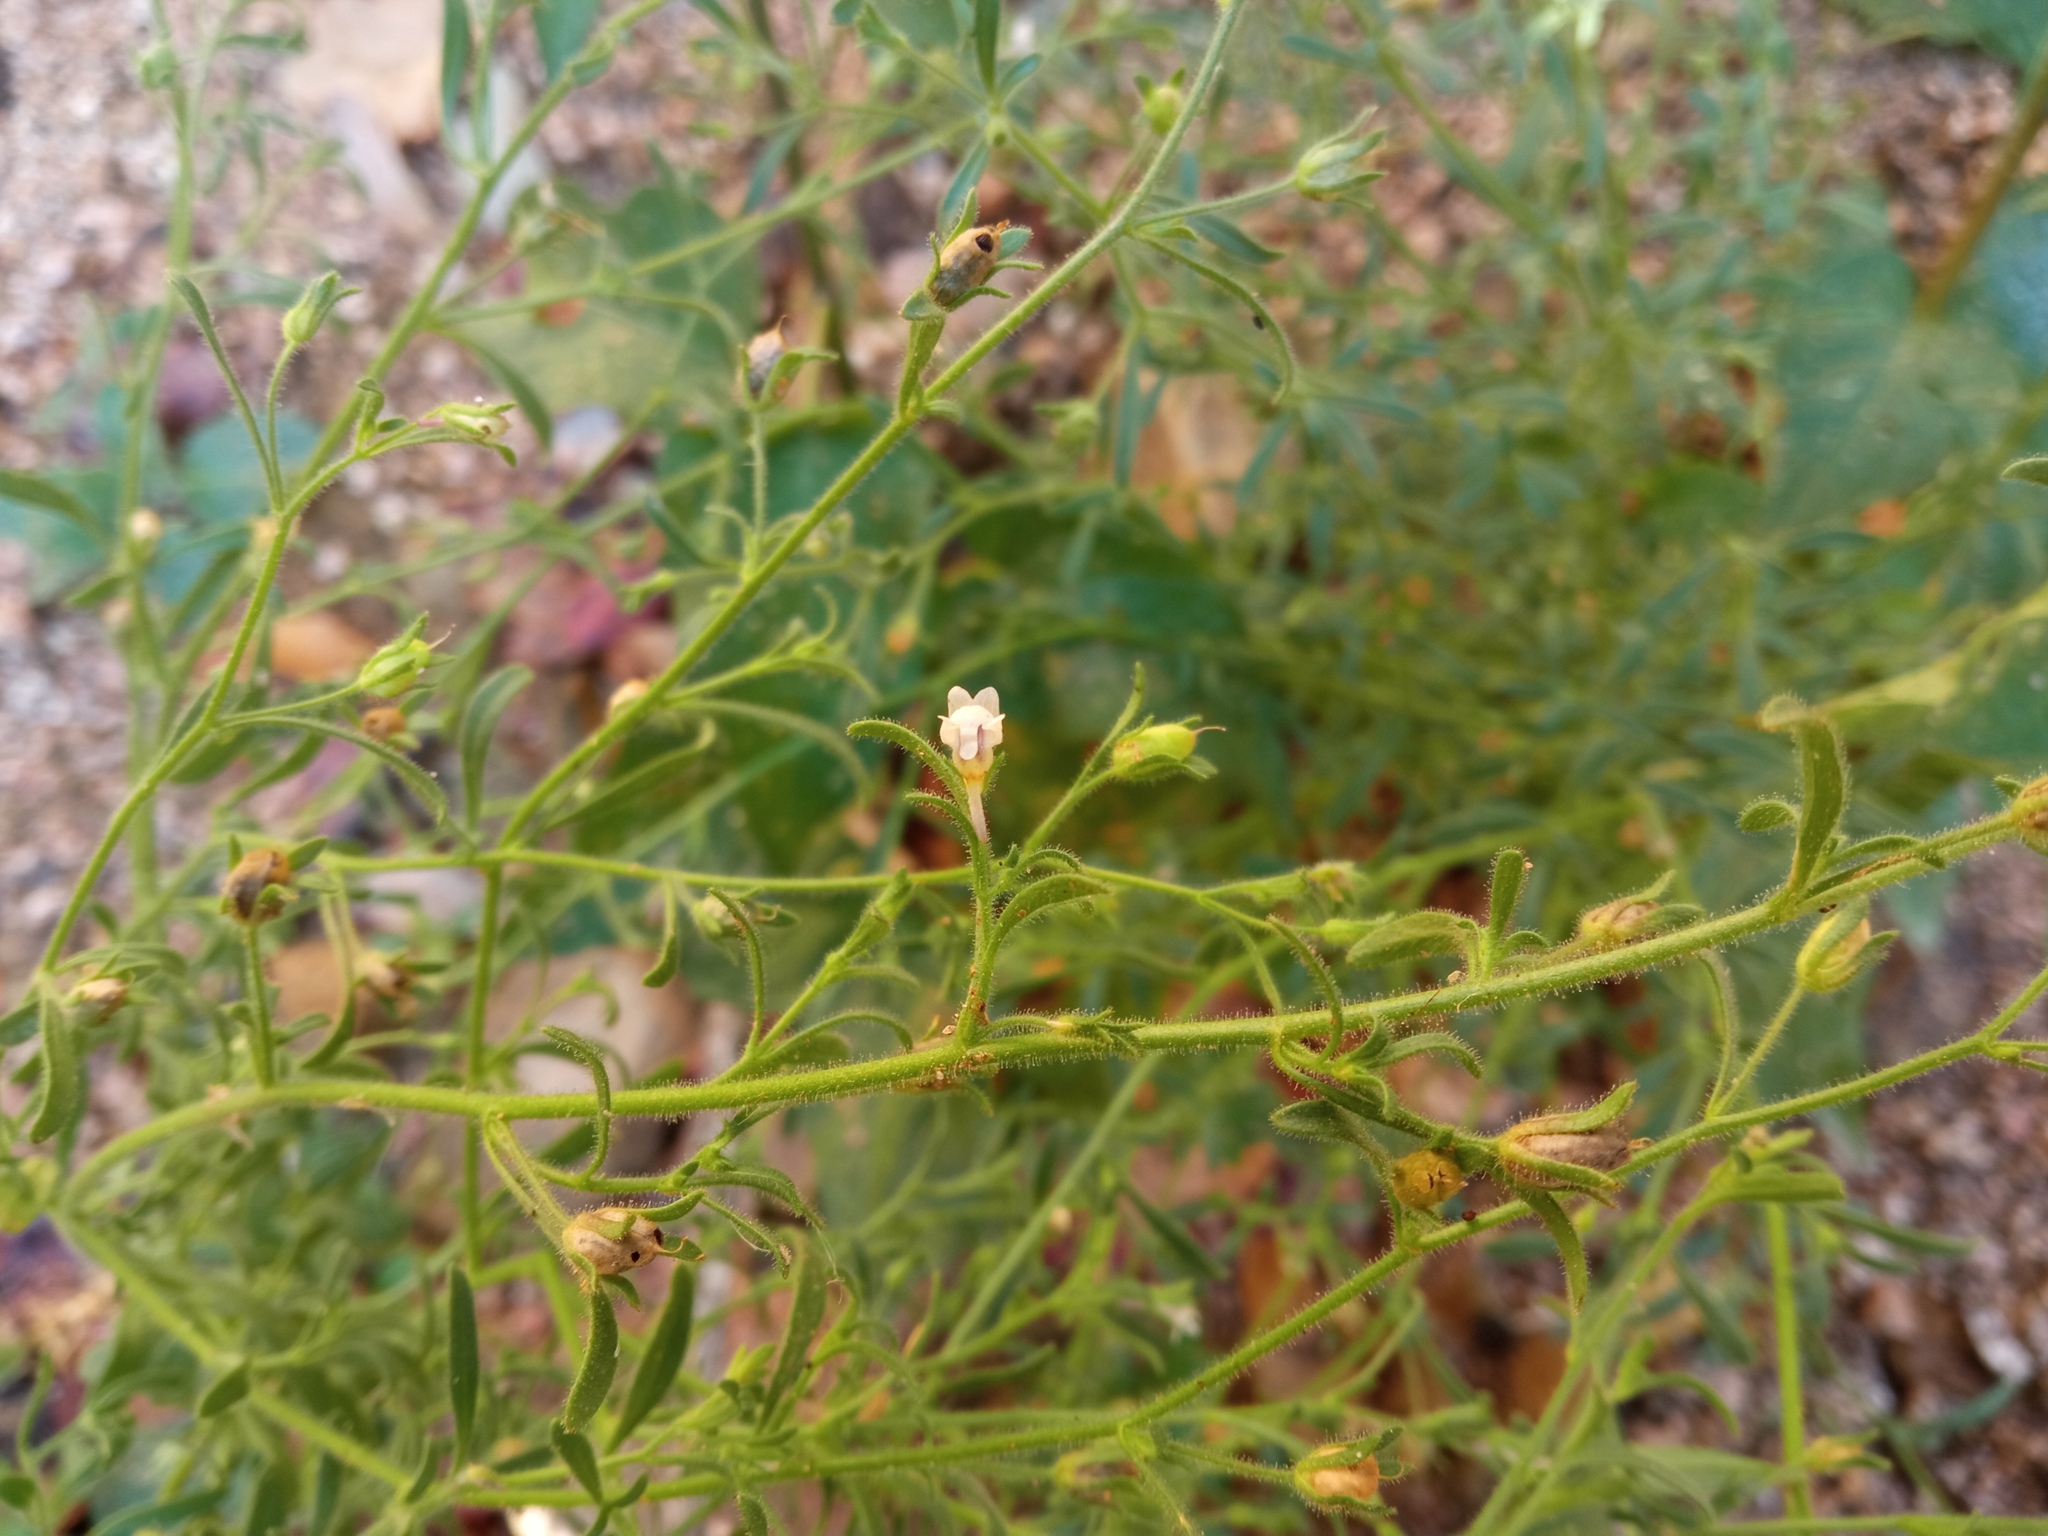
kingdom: Plantae
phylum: Tracheophyta
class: Magnoliopsida
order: Lamiales
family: Plantaginaceae
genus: Chaenorhinum
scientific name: Chaenorhinum minus
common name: Dwarf snapdragon
